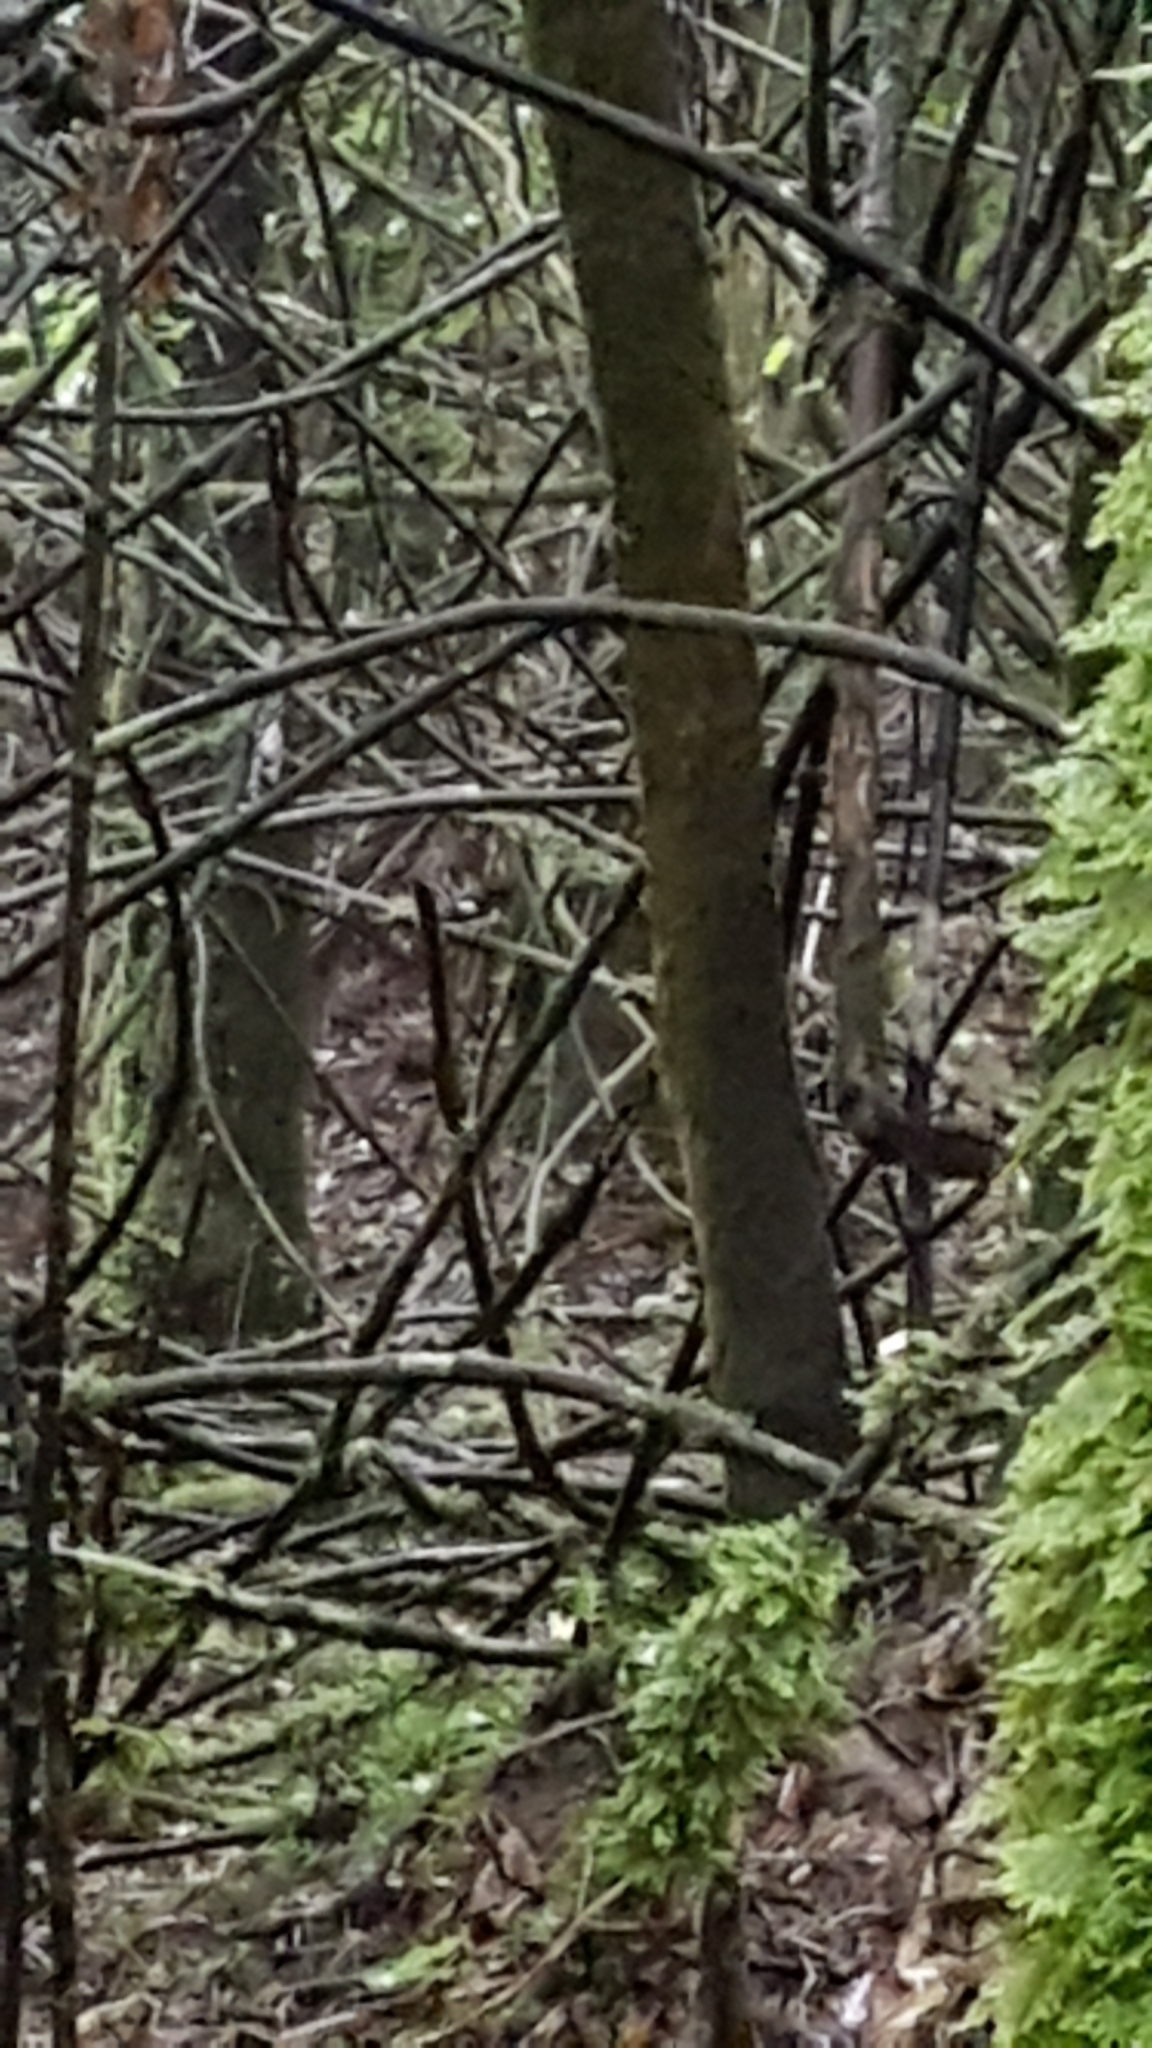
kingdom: Animalia
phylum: Chordata
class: Aves
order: Passeriformes
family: Petroicidae
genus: Petroica
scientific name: Petroica macrocephala
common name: Tomtit
